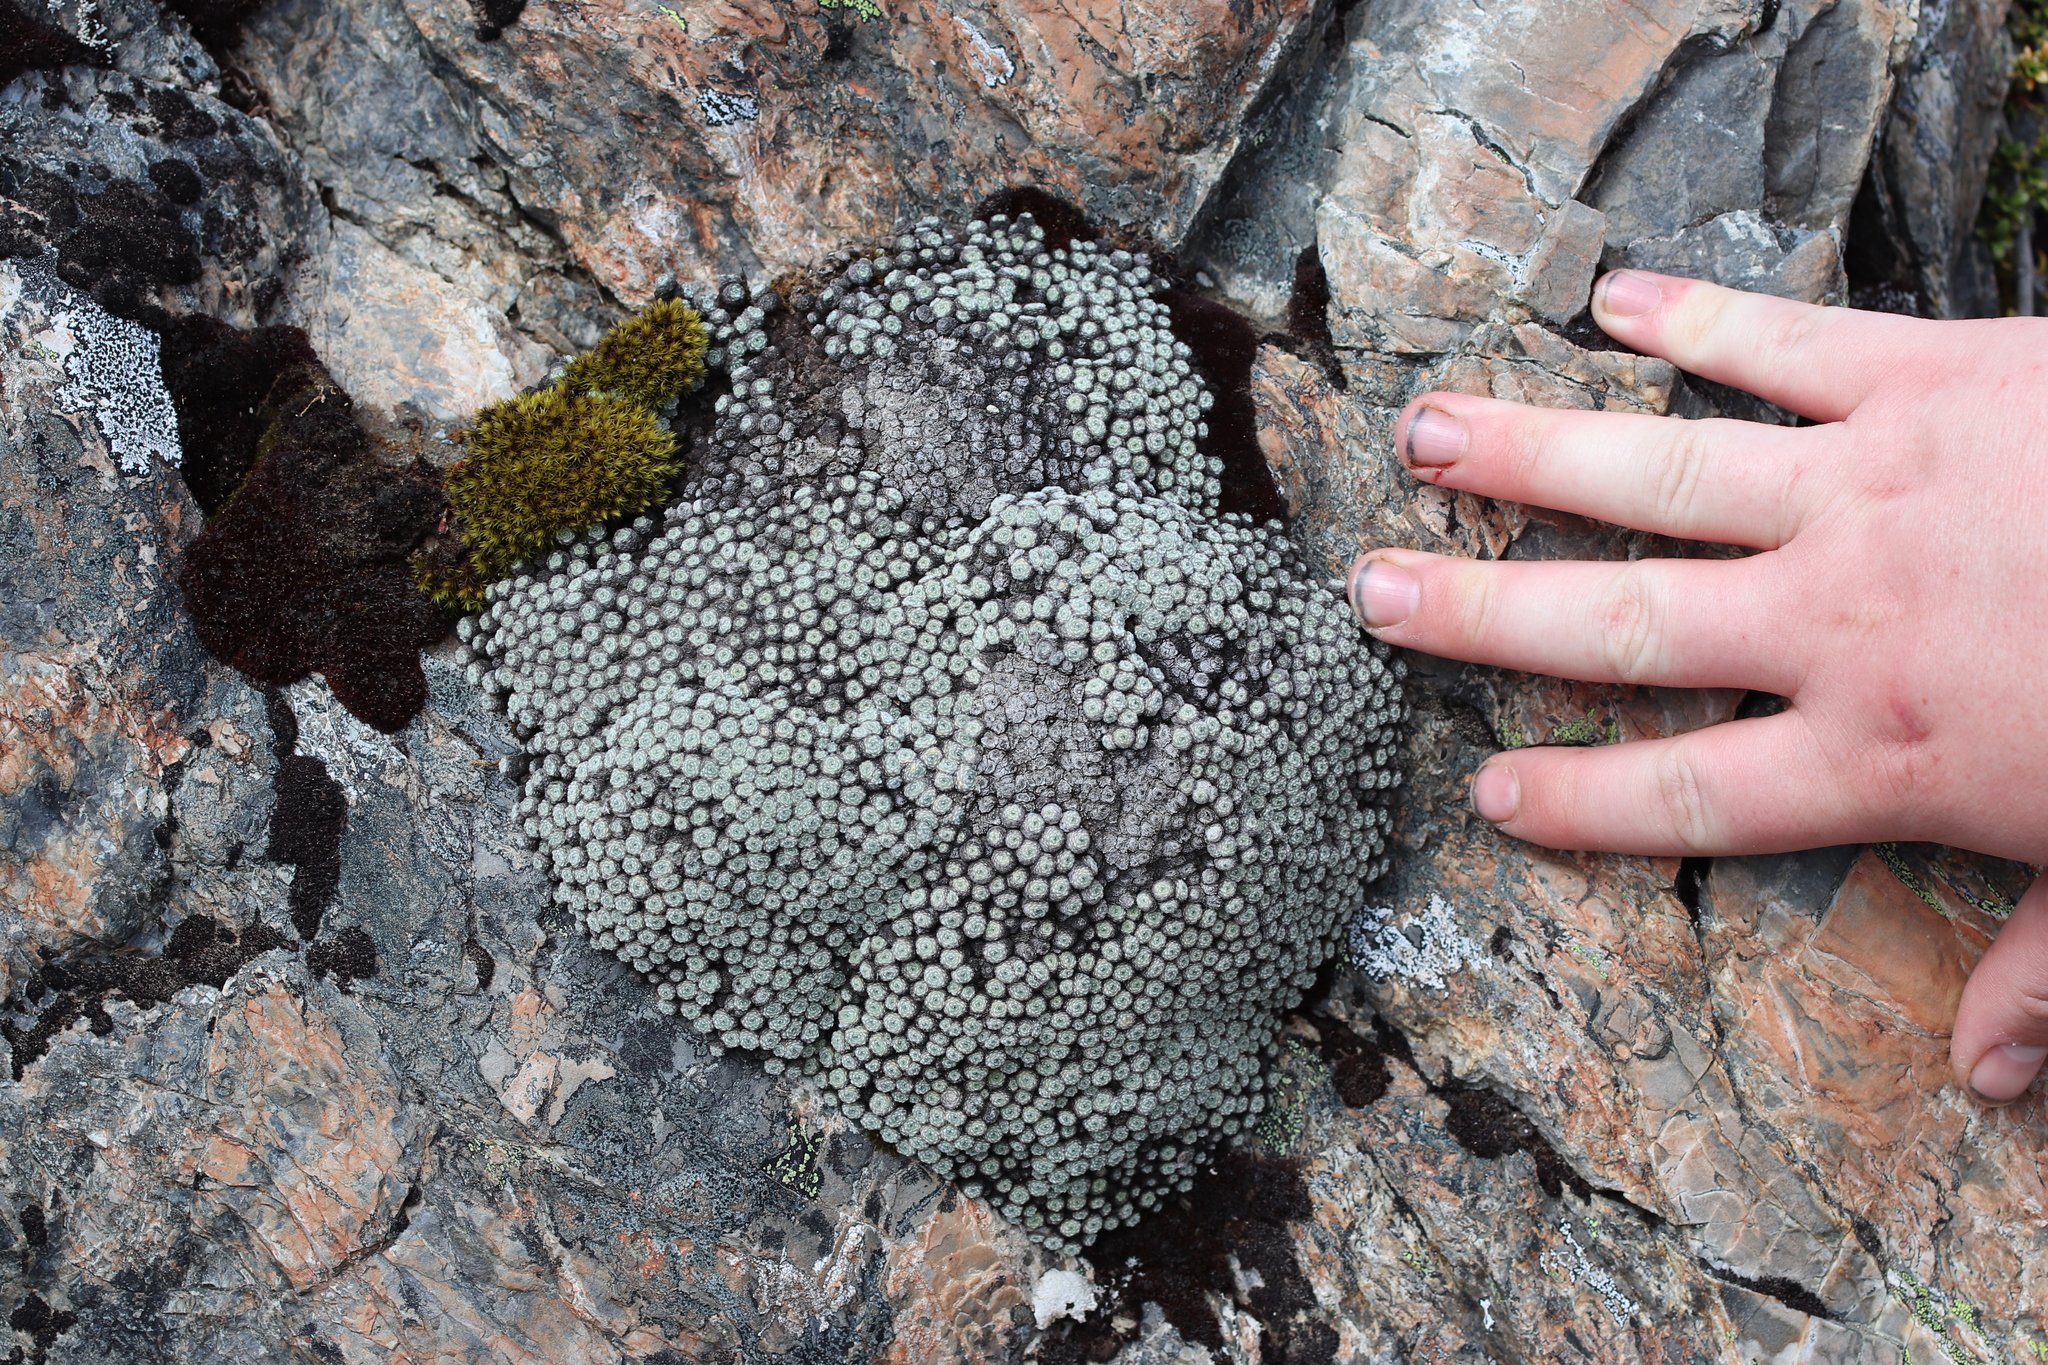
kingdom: Plantae
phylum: Tracheophyta
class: Magnoliopsida
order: Asterales
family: Asteraceae
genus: Raoulia
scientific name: Raoulia mammillaris
